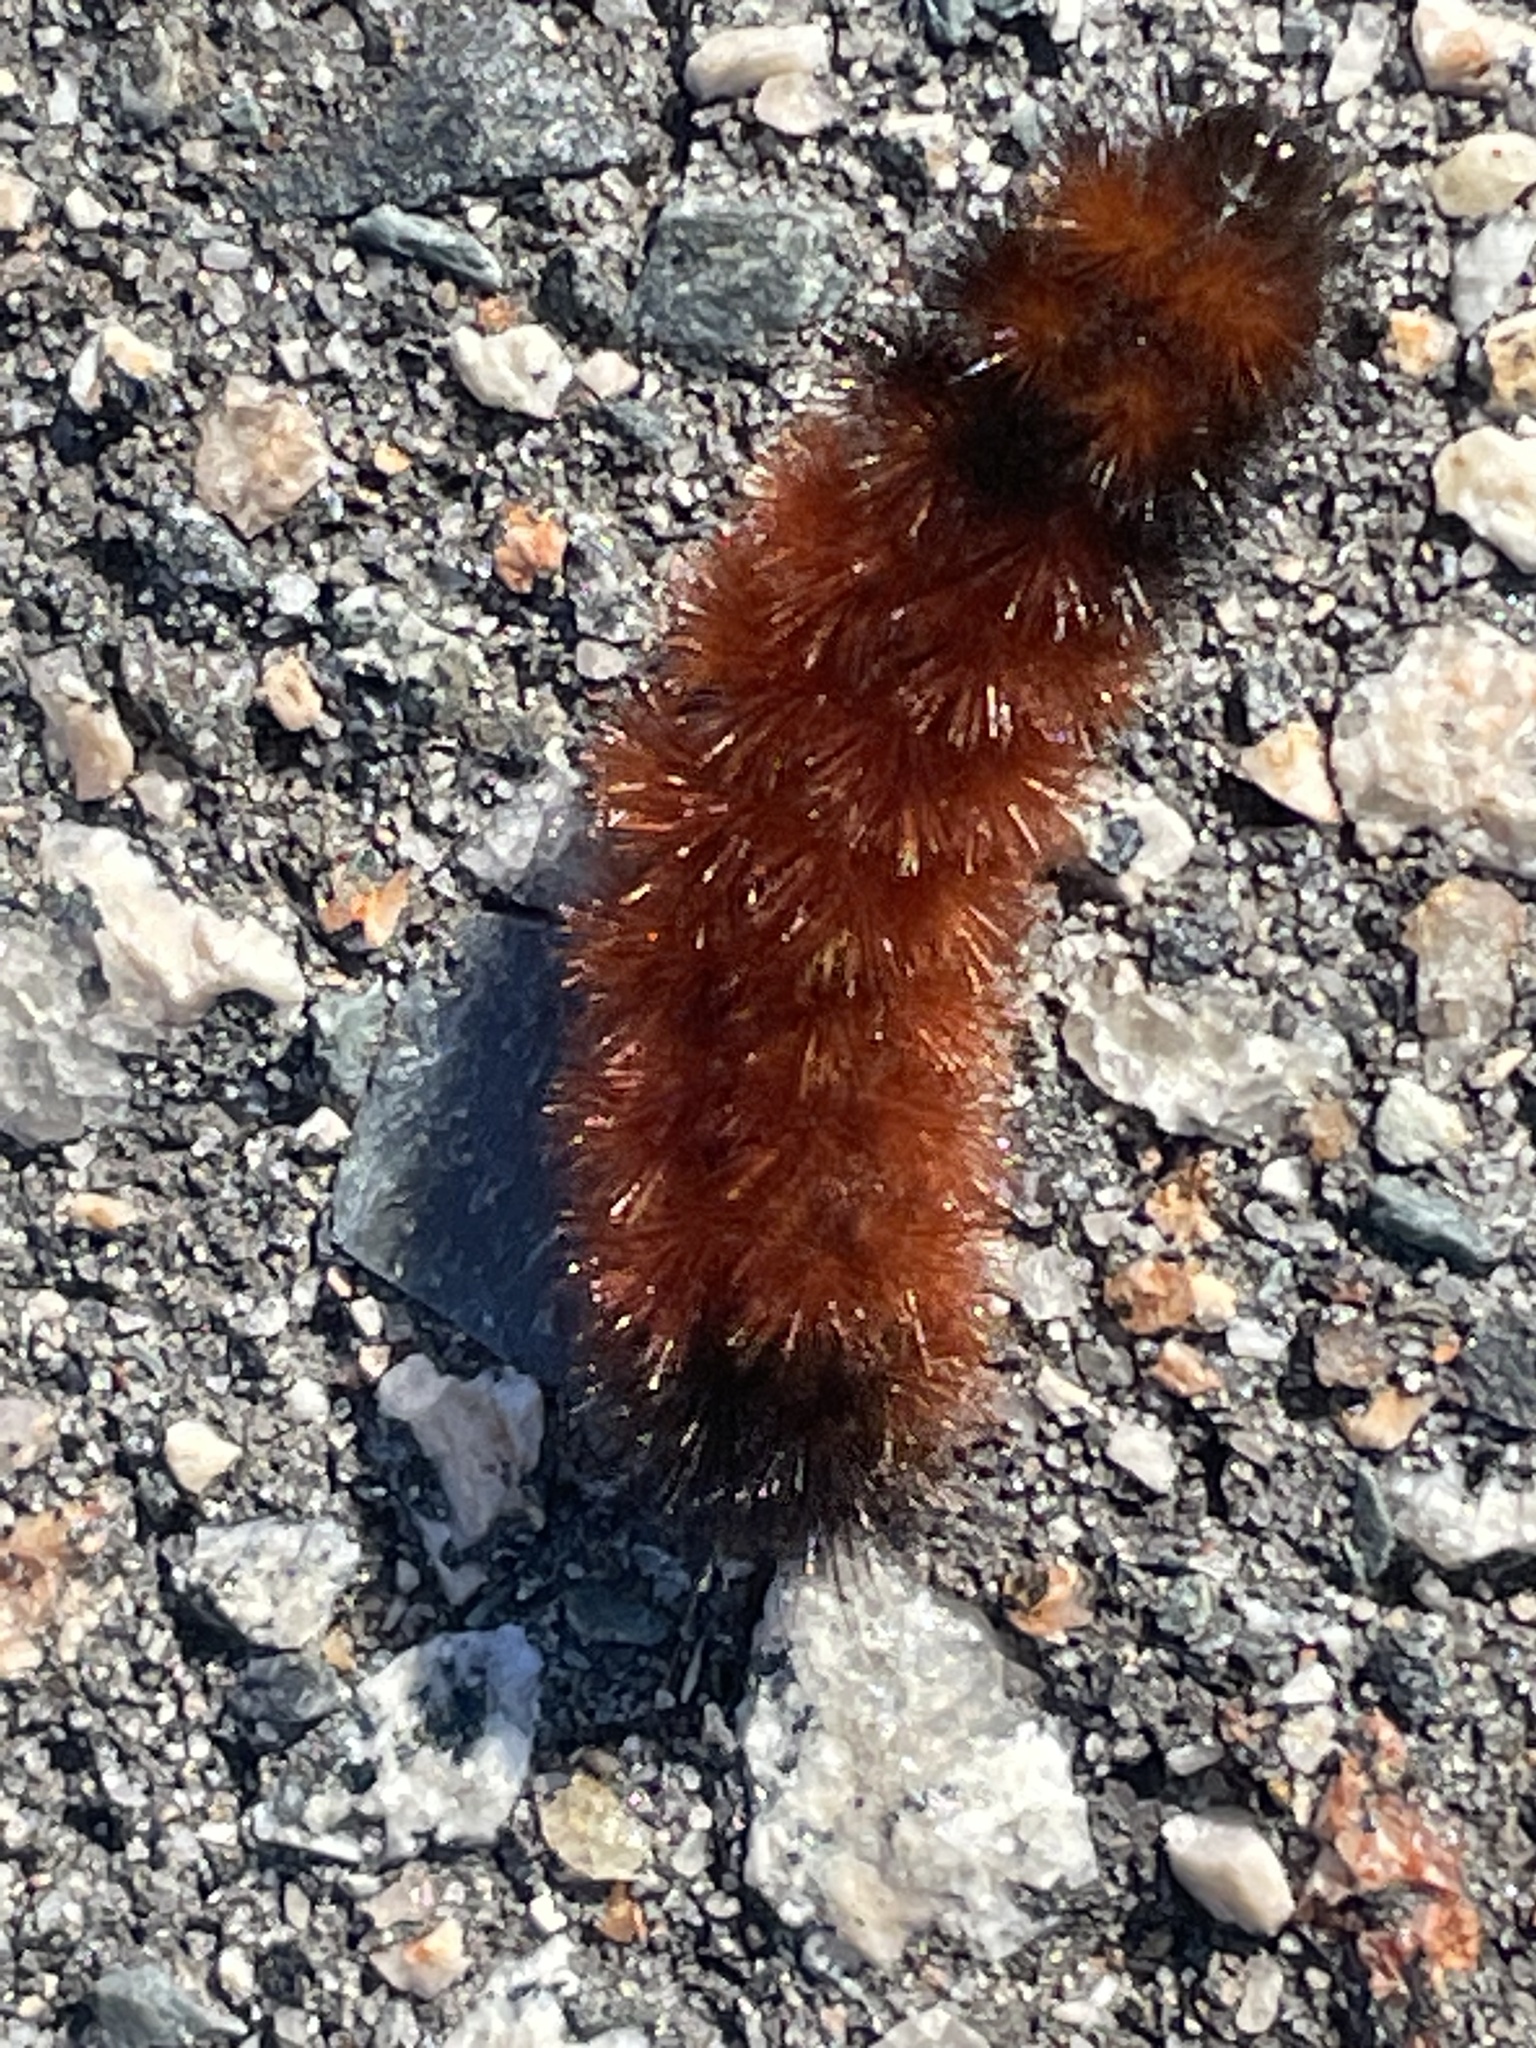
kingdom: Animalia
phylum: Arthropoda
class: Insecta
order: Lepidoptera
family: Erebidae
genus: Pyrrharctia
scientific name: Pyrrharctia isabella
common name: Isabella tiger moth
